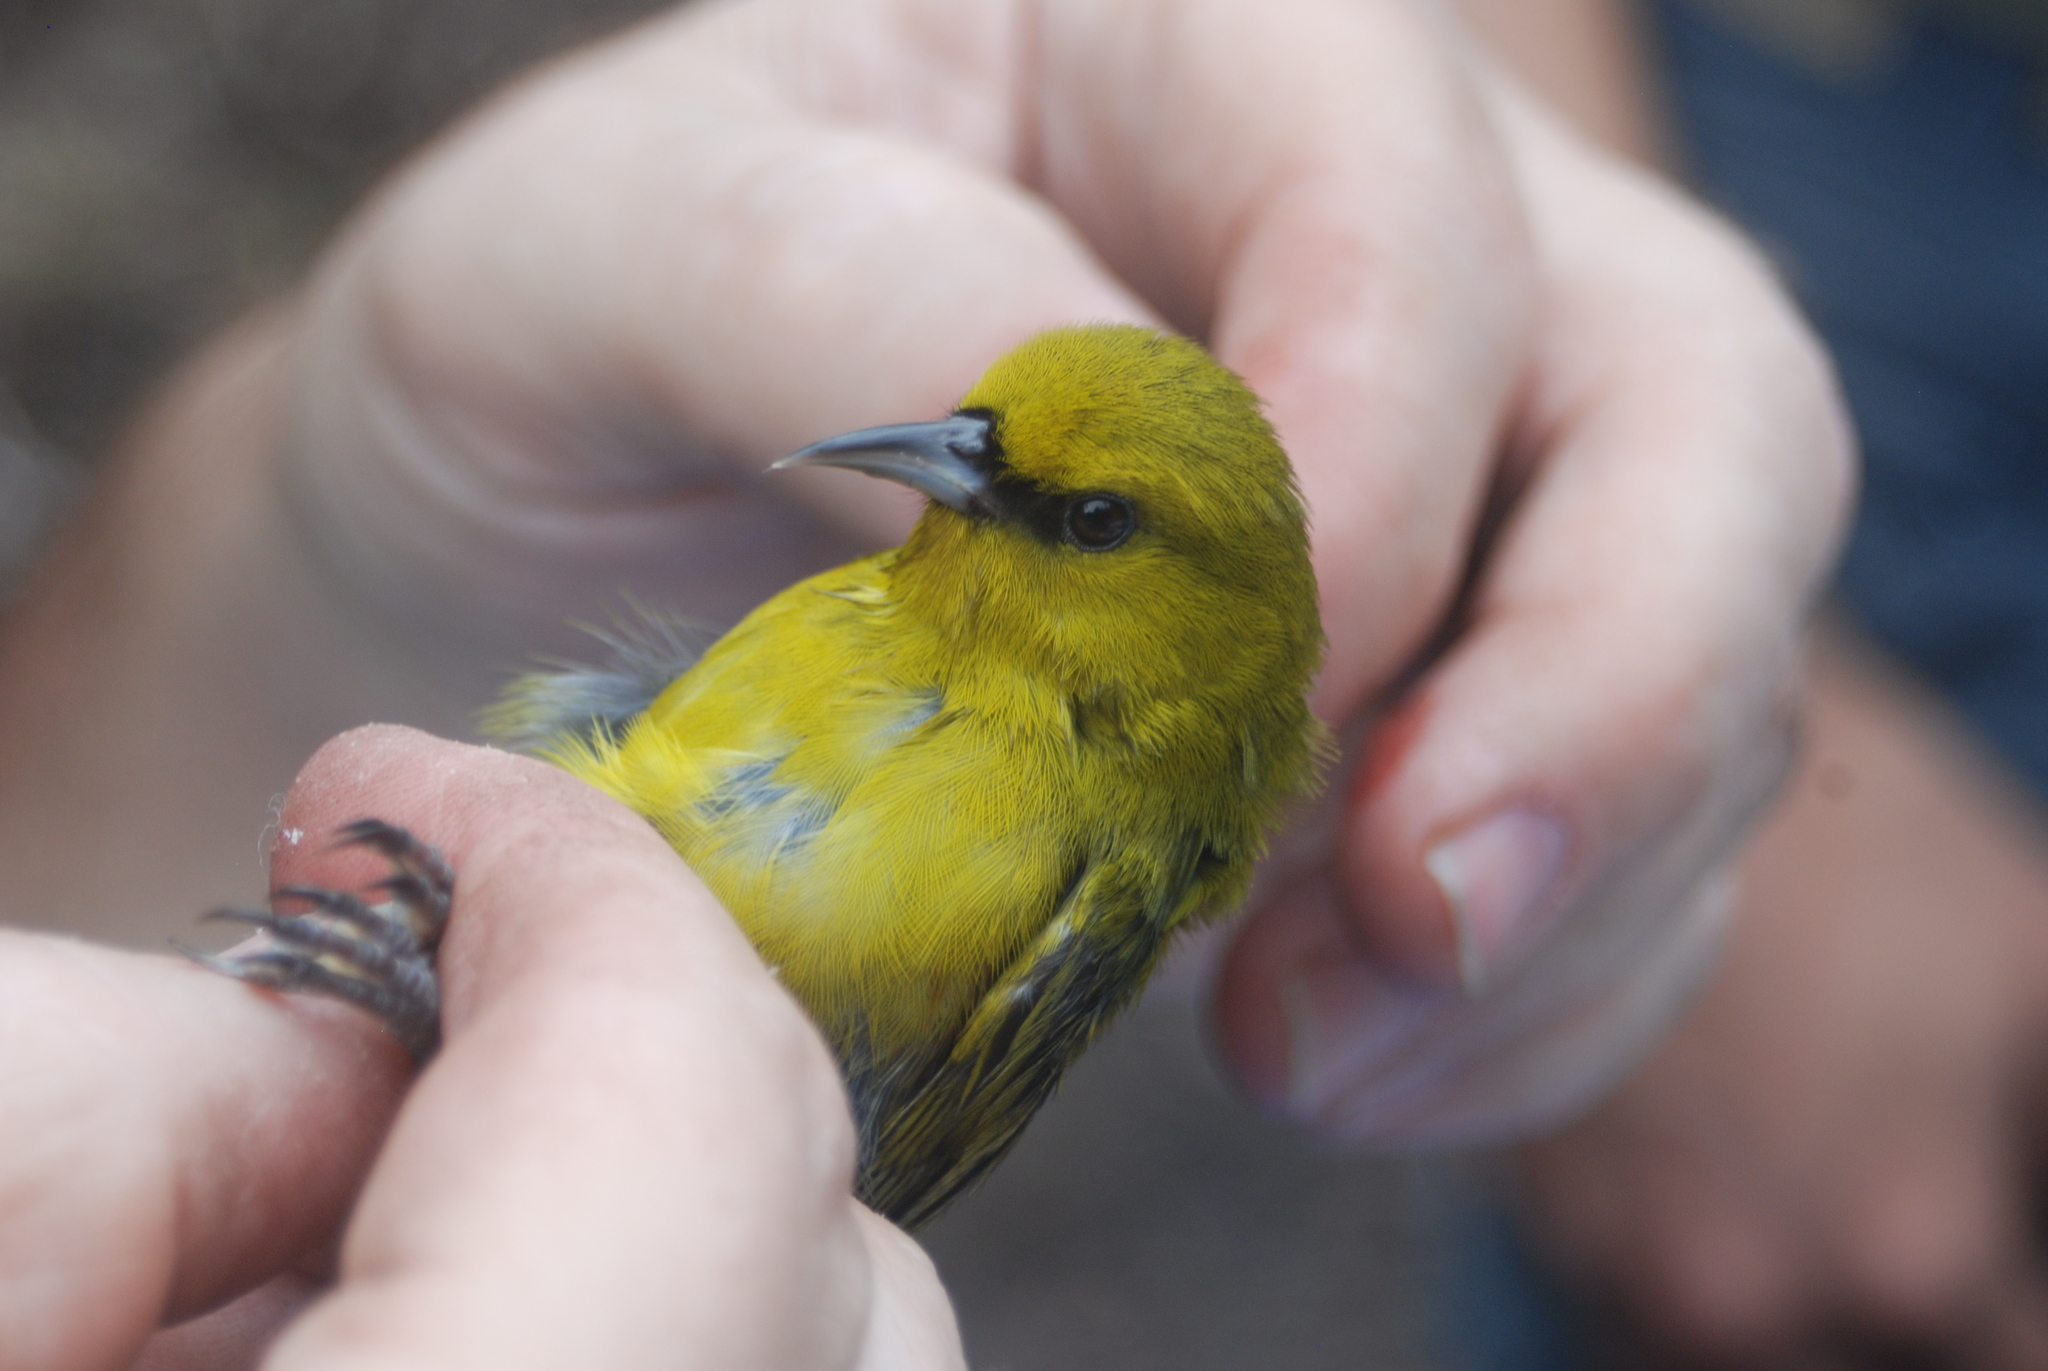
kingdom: Animalia
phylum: Chordata
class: Aves
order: Passeriformes
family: Fringillidae
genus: Chlorodrepanis
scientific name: Chlorodrepanis virens
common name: Hawaii amakihi
